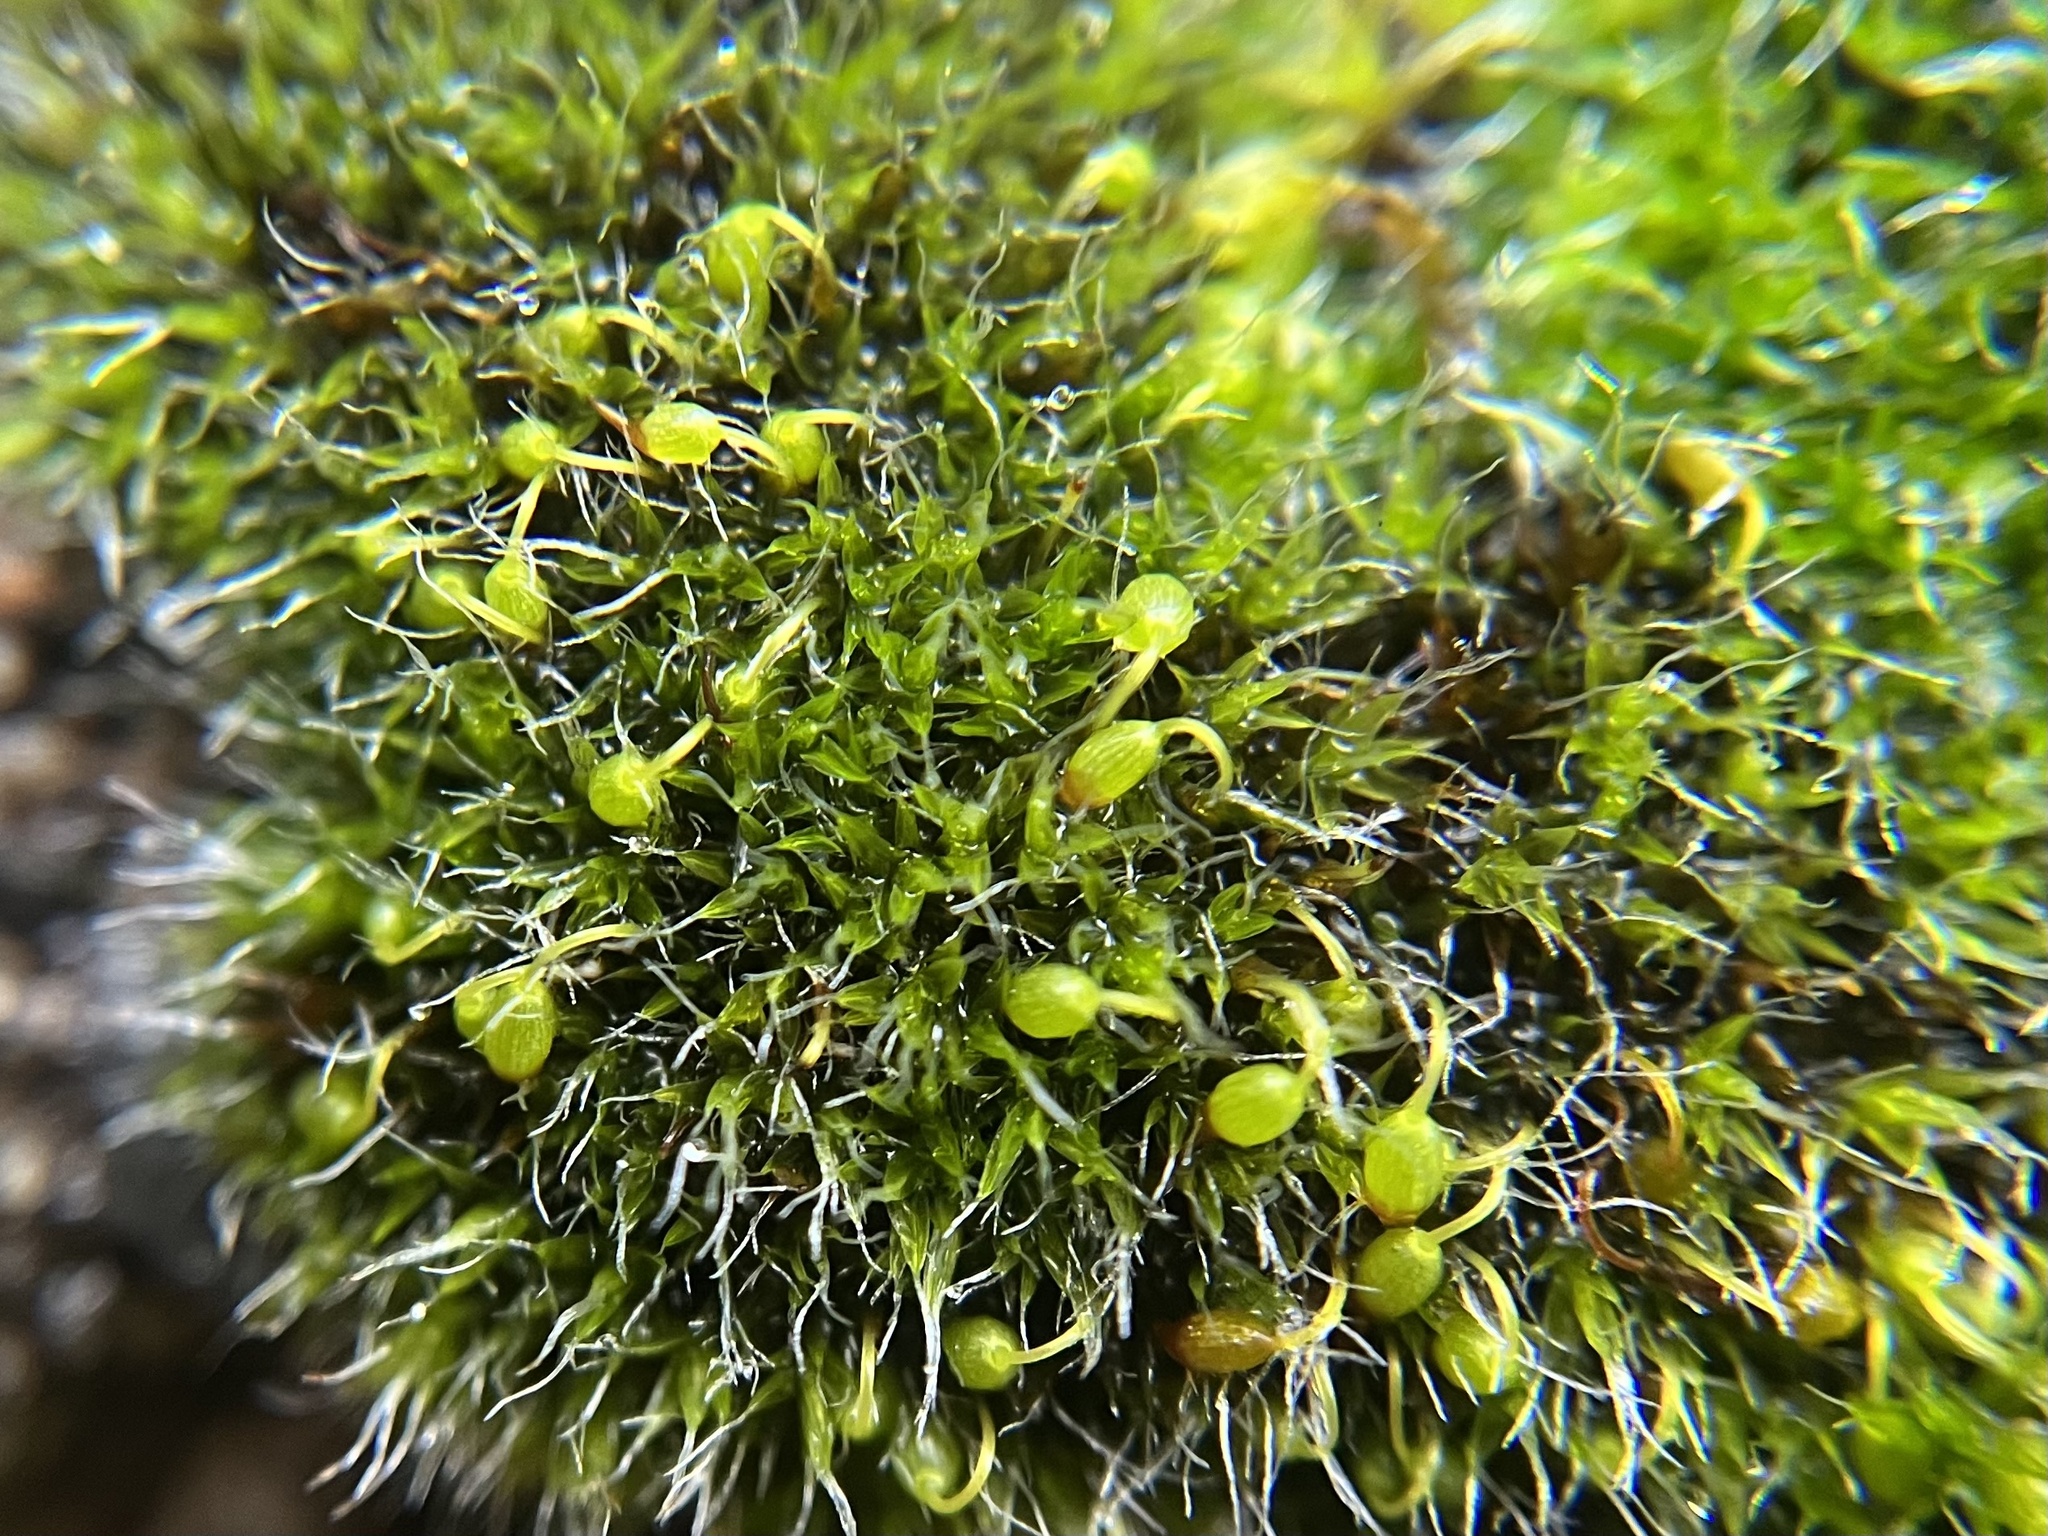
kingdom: Plantae
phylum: Bryophyta
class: Bryopsida
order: Grimmiales
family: Grimmiaceae
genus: Grimmia
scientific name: Grimmia pulvinata
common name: Grey-cushioned grimmia
